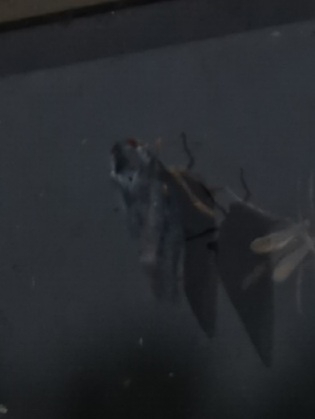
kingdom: Animalia
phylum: Arthropoda
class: Insecta
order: Hemiptera
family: Flatidae
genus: Metcalfa
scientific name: Metcalfa pruinosa
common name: Citrus flatid planthopper
